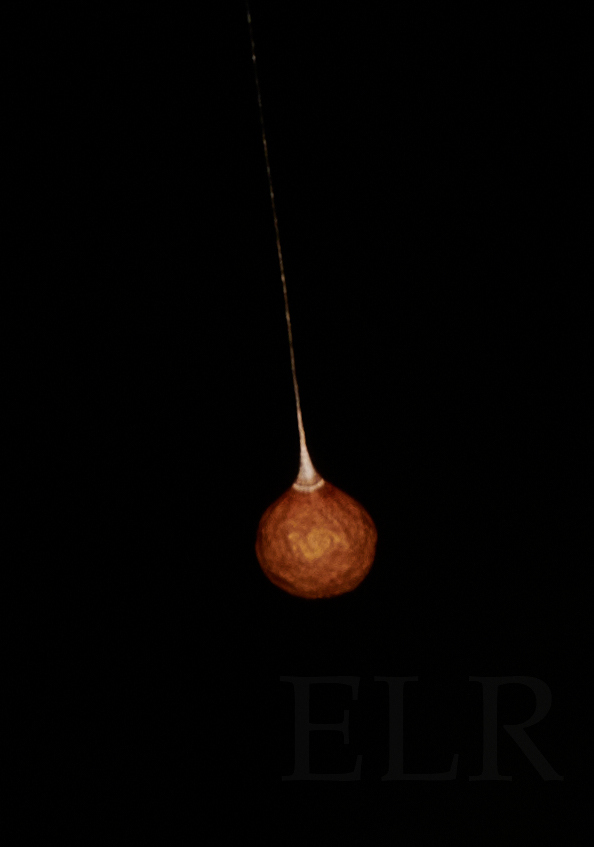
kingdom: Animalia
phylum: Arthropoda
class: Arachnida
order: Araneae
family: Theridiosomatidae
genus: Theridiosoma
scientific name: Theridiosoma gemmosum
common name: Ray spider
